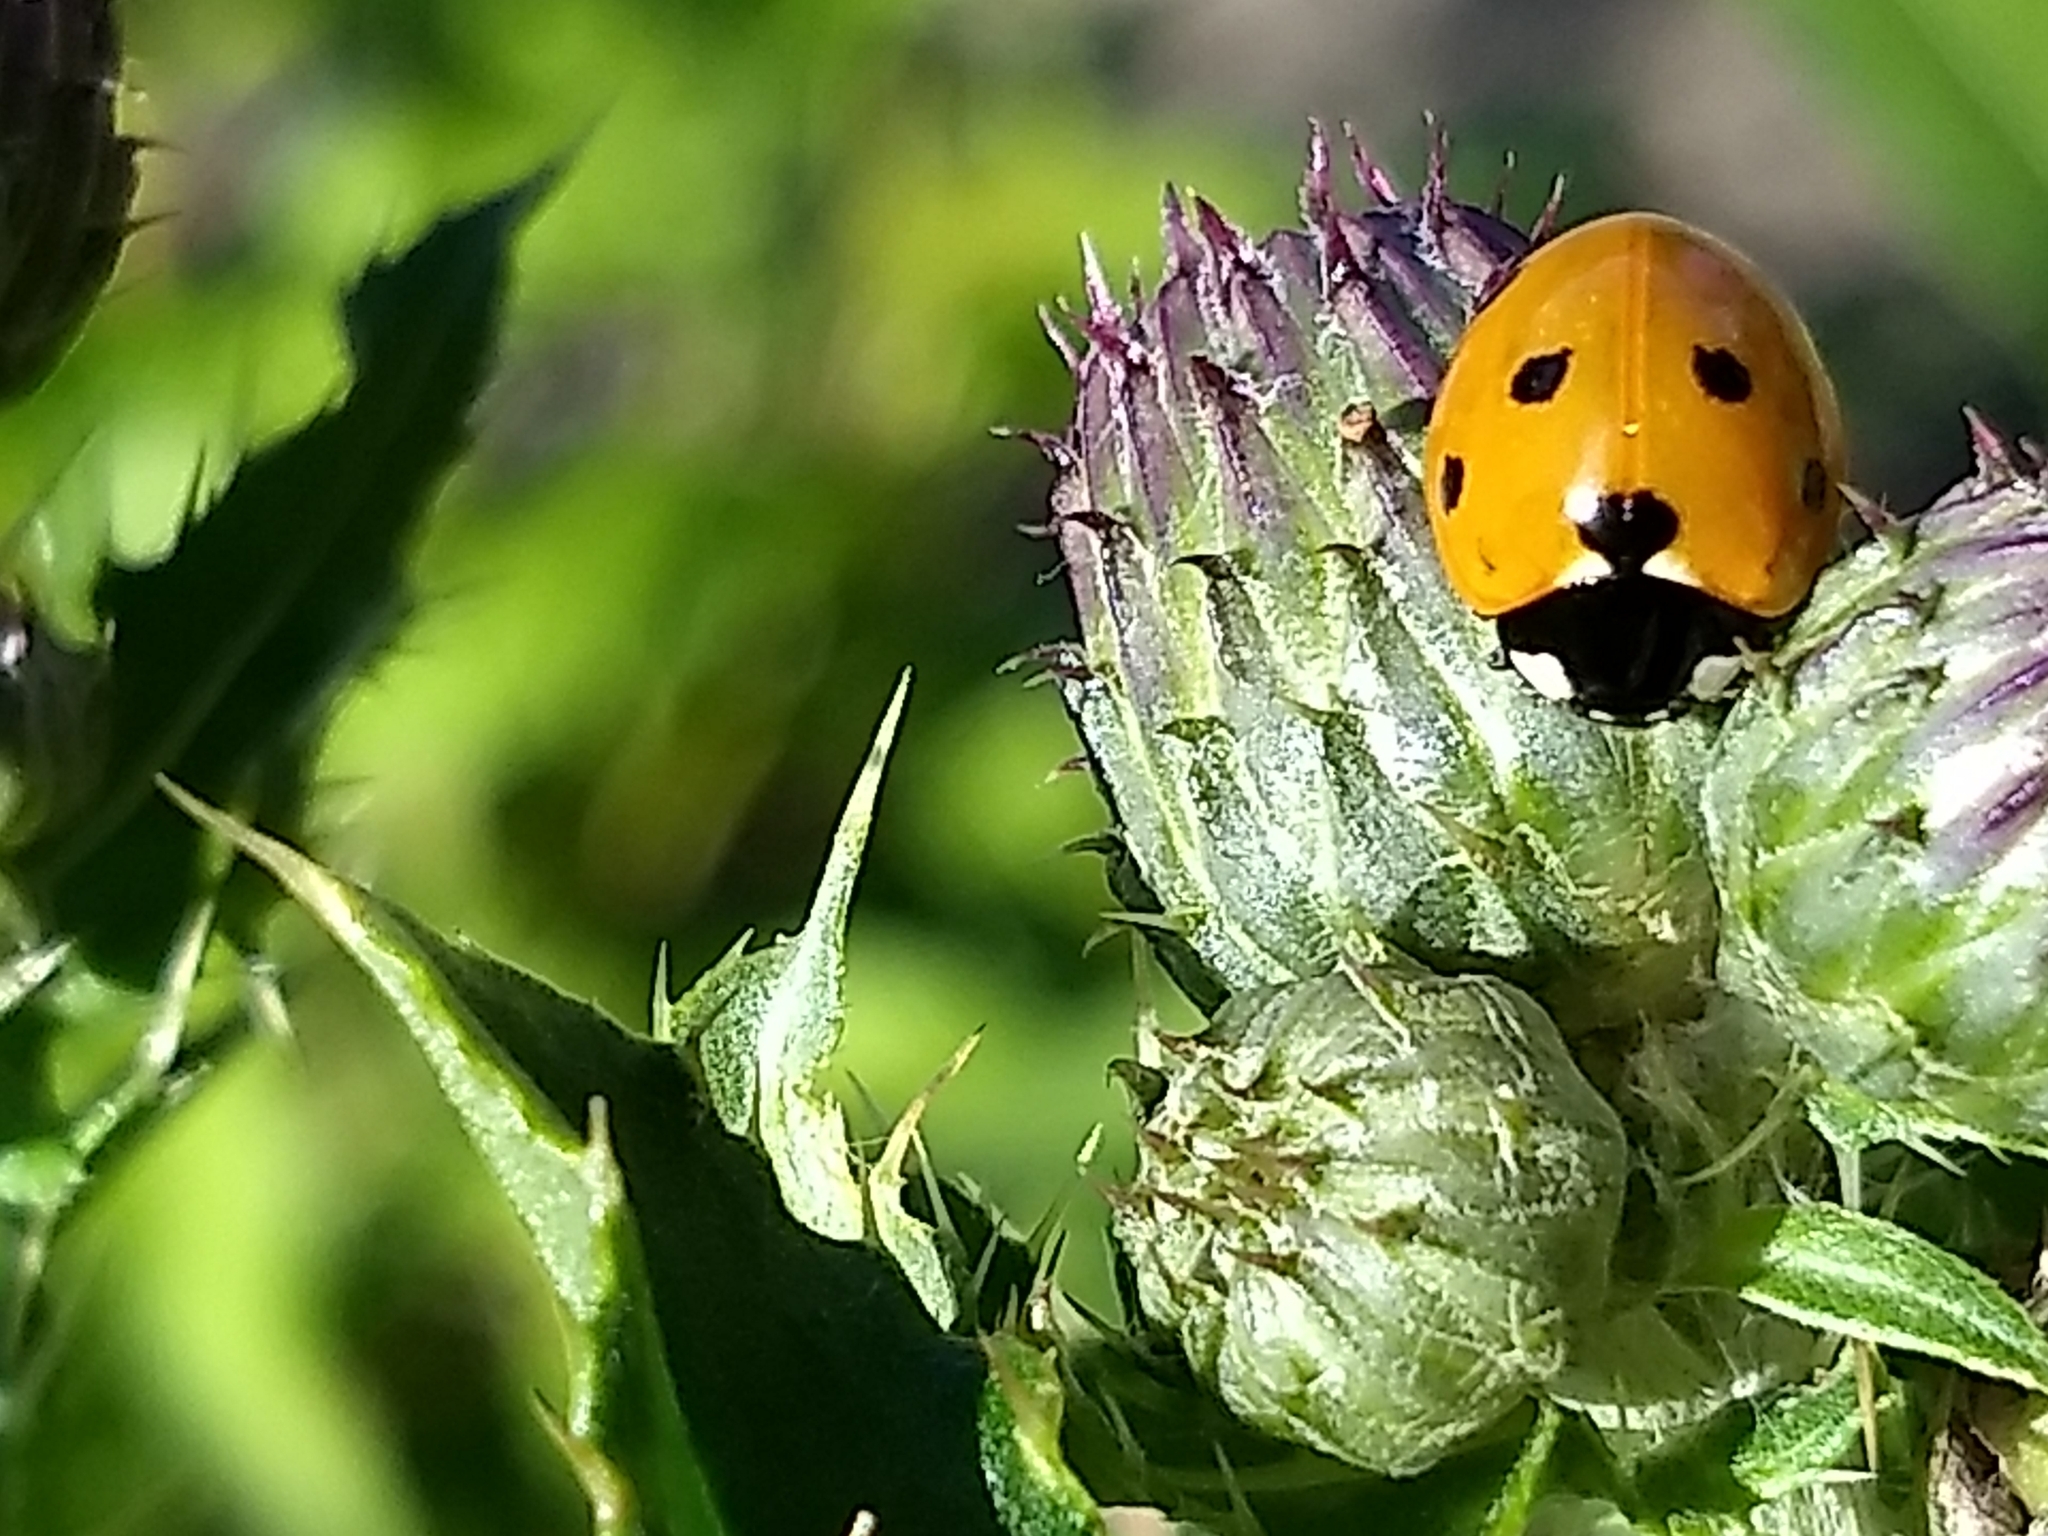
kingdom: Animalia
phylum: Arthropoda
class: Insecta
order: Coleoptera
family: Coccinellidae
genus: Coccinella
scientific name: Coccinella septempunctata
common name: Sevenspotted lady beetle
